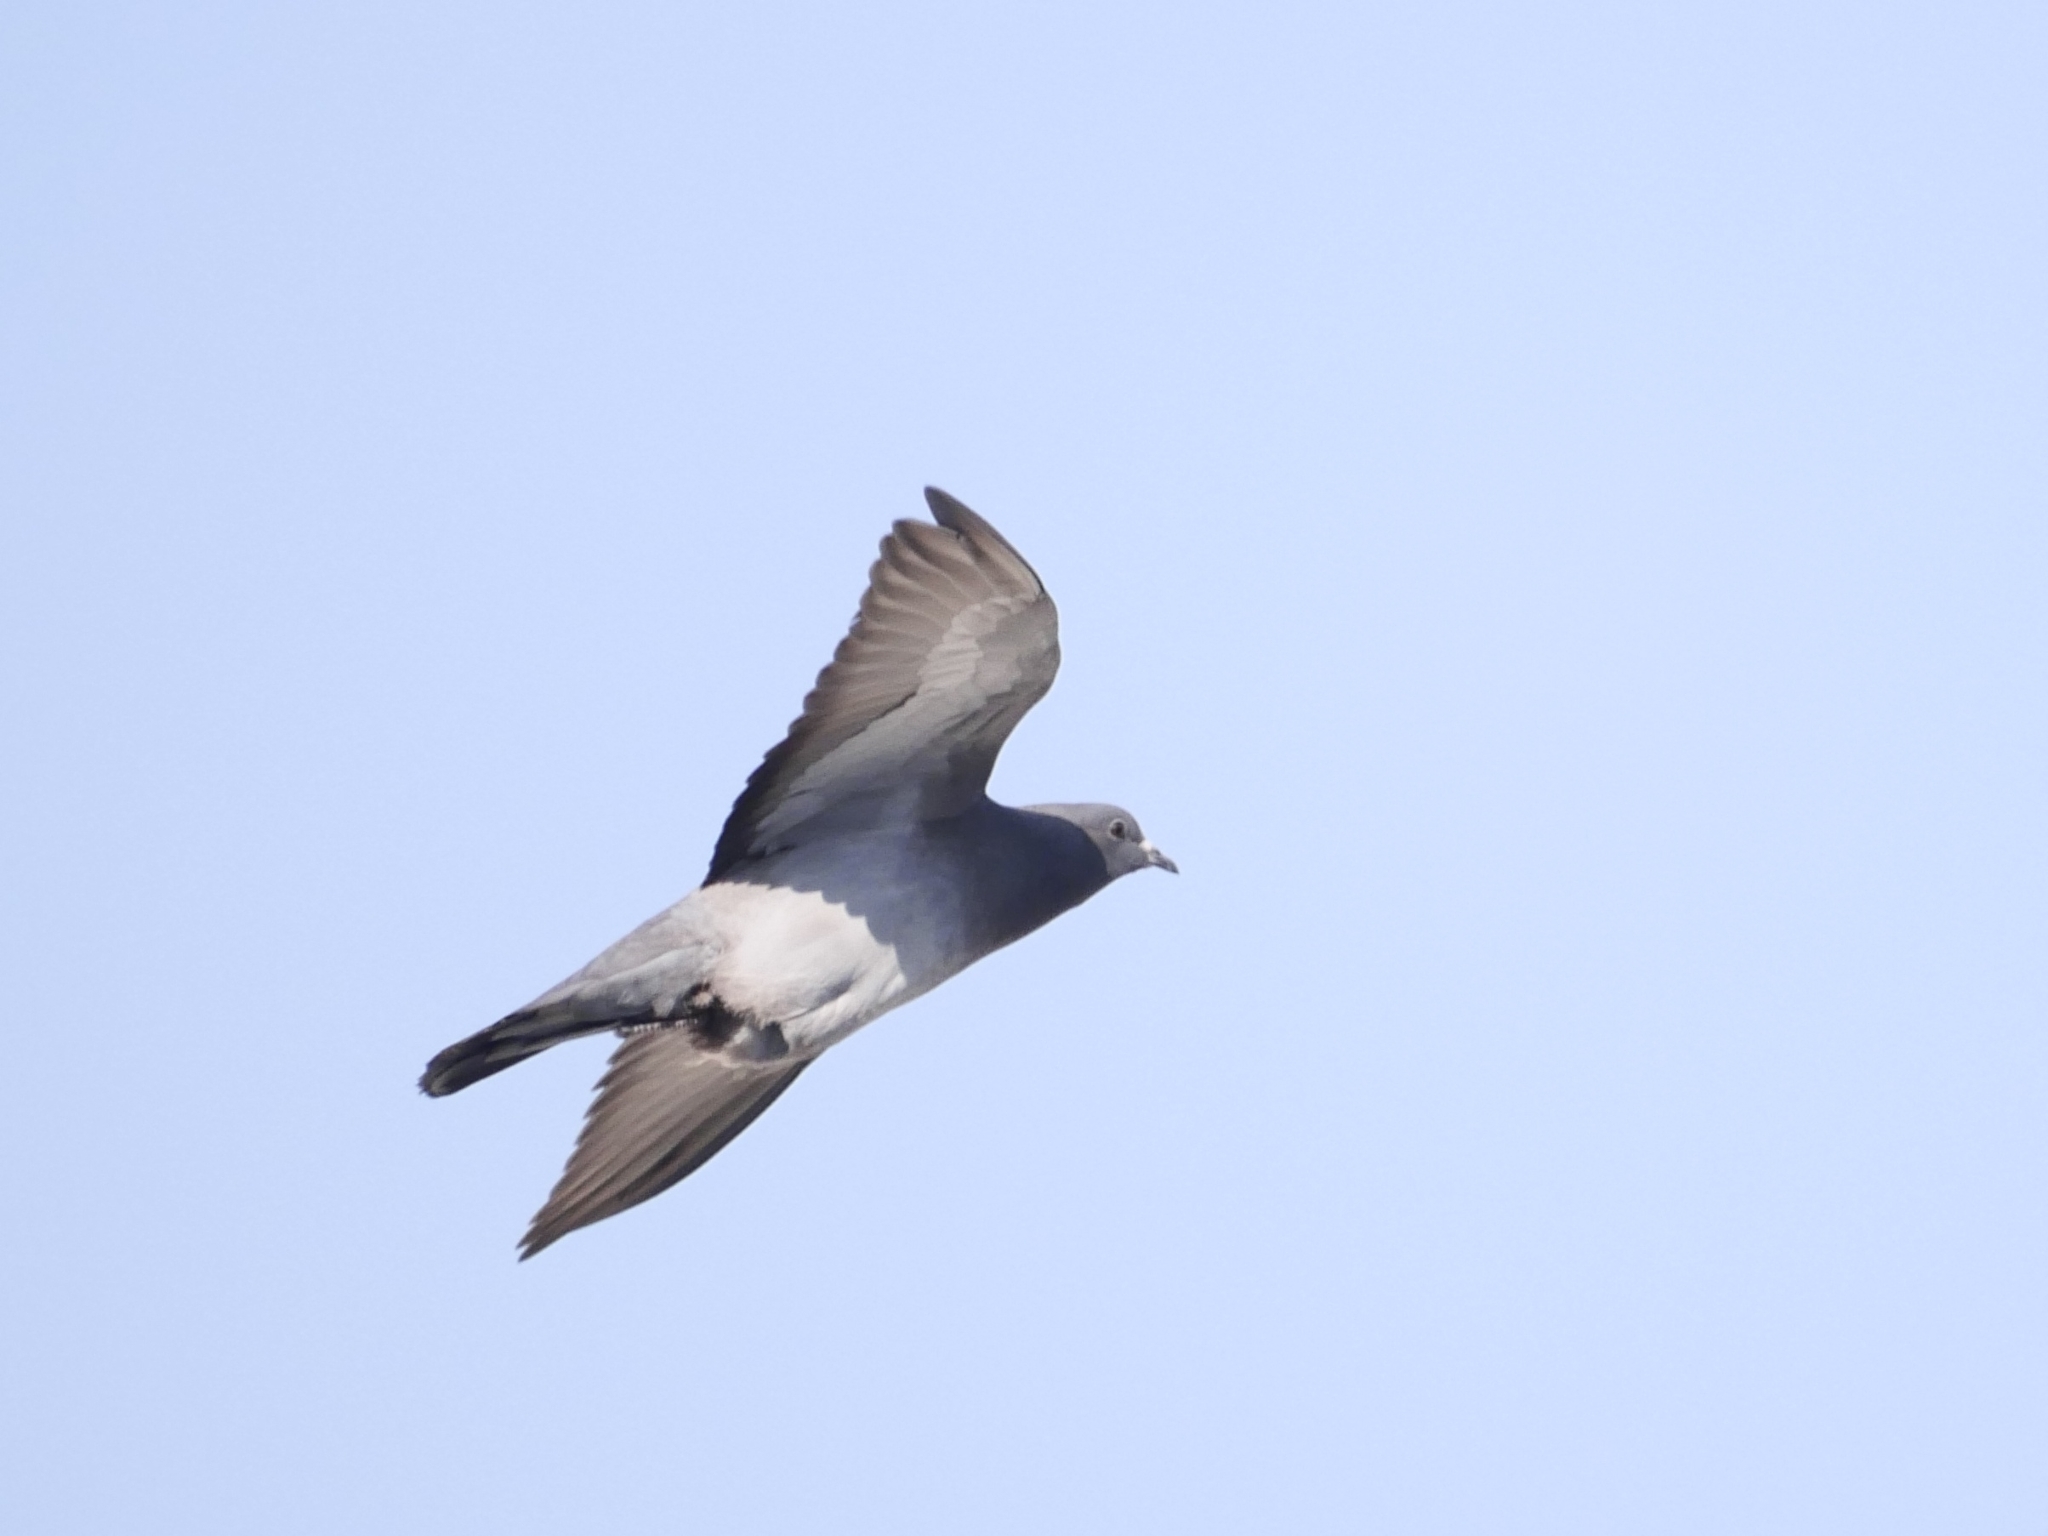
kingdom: Animalia
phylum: Chordata
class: Aves
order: Columbiformes
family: Columbidae
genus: Columba
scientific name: Columba livia
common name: Rock pigeon
